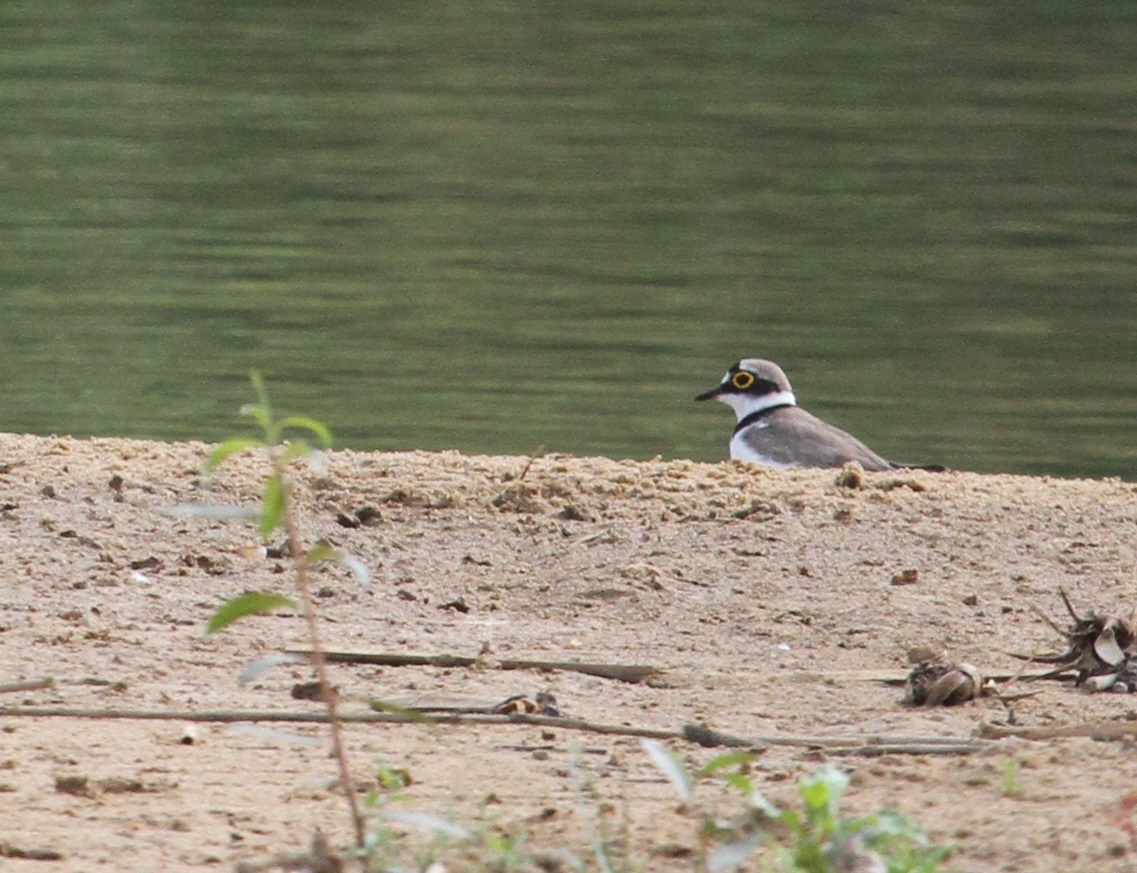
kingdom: Animalia
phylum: Chordata
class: Aves
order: Charadriiformes
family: Charadriidae
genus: Charadrius
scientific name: Charadrius dubius
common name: Little ringed plover
